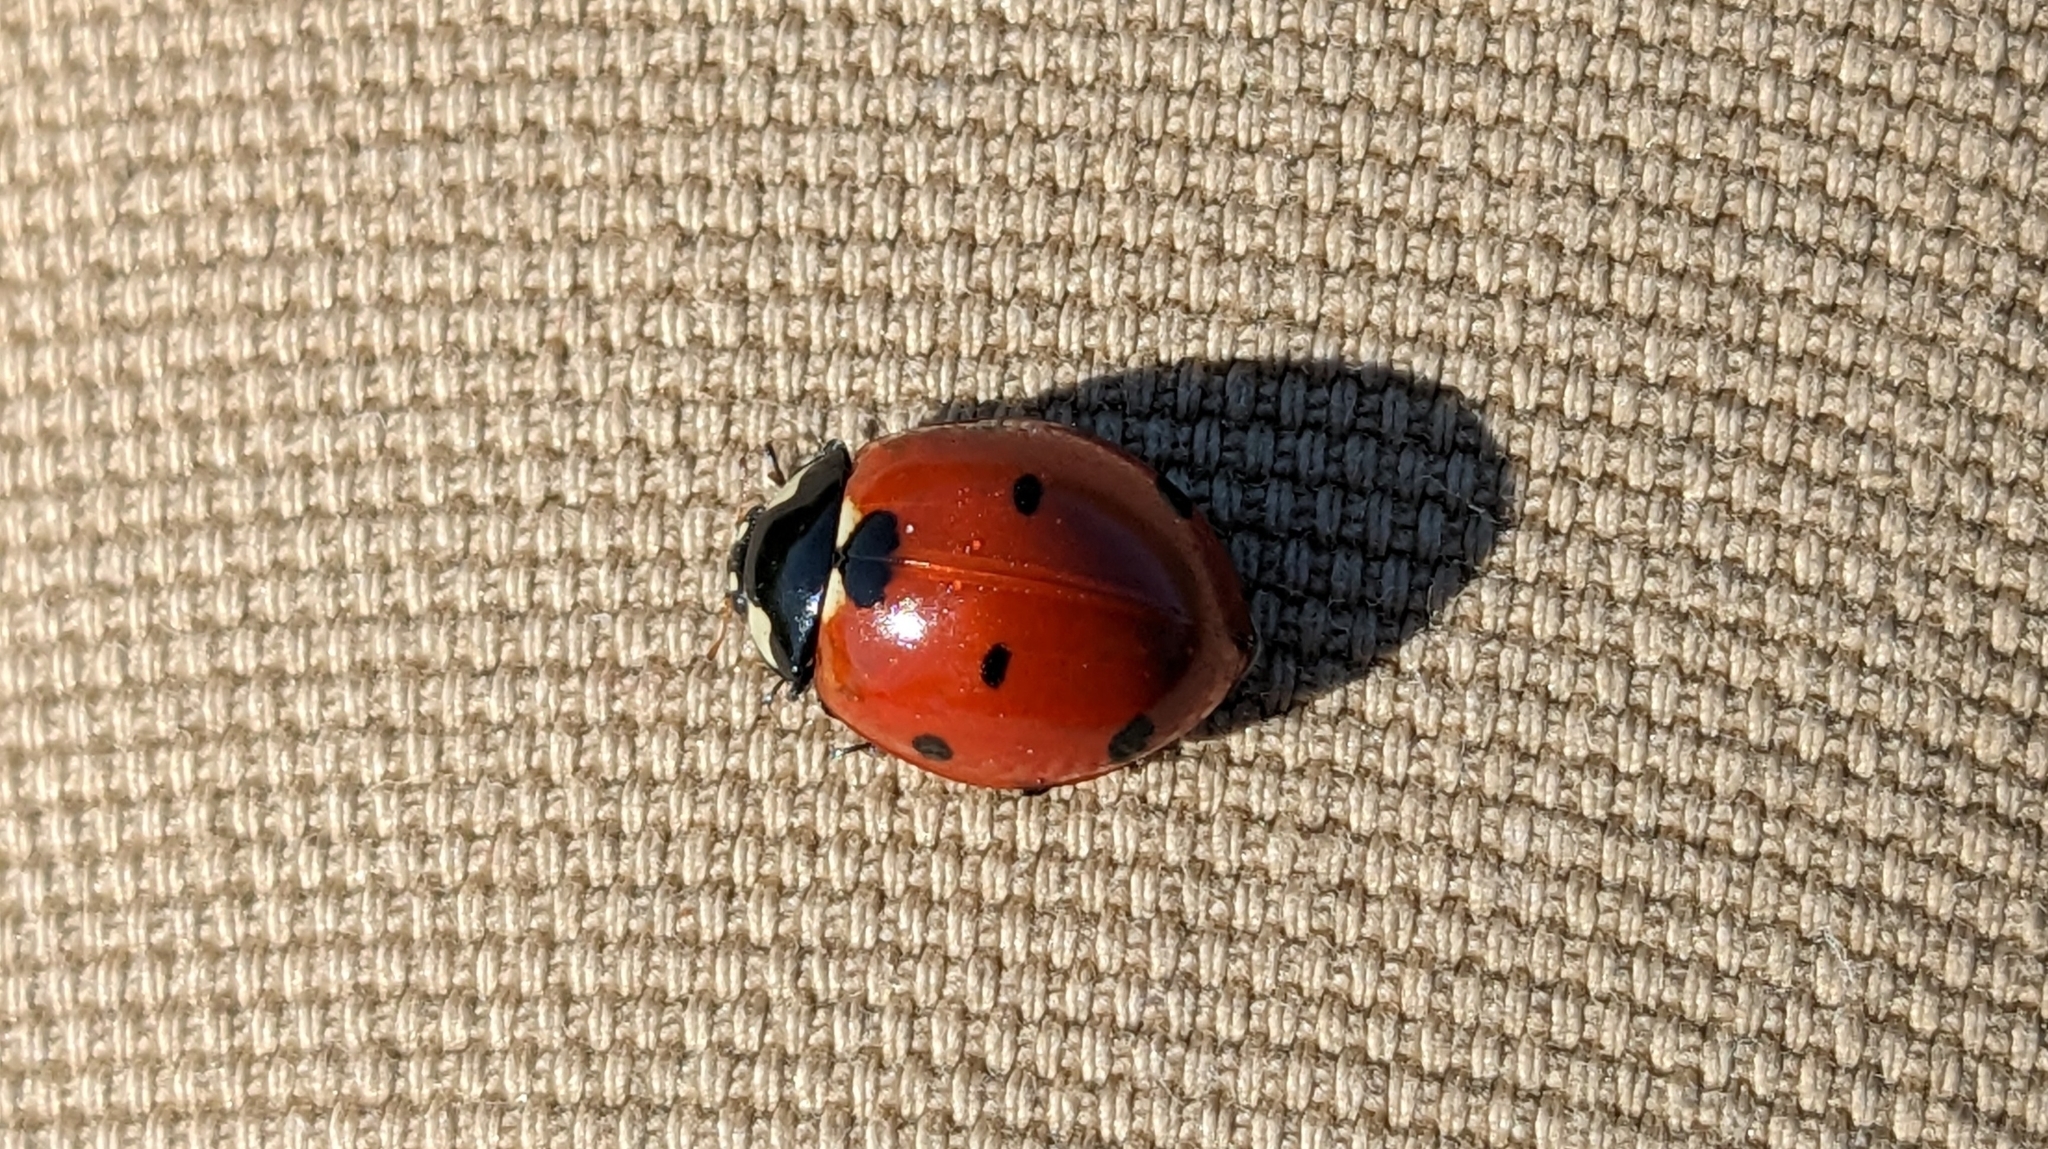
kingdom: Animalia
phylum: Arthropoda
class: Insecta
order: Coleoptera
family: Coccinellidae
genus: Coccinella
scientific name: Coccinella septempunctata
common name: Sevenspotted lady beetle
